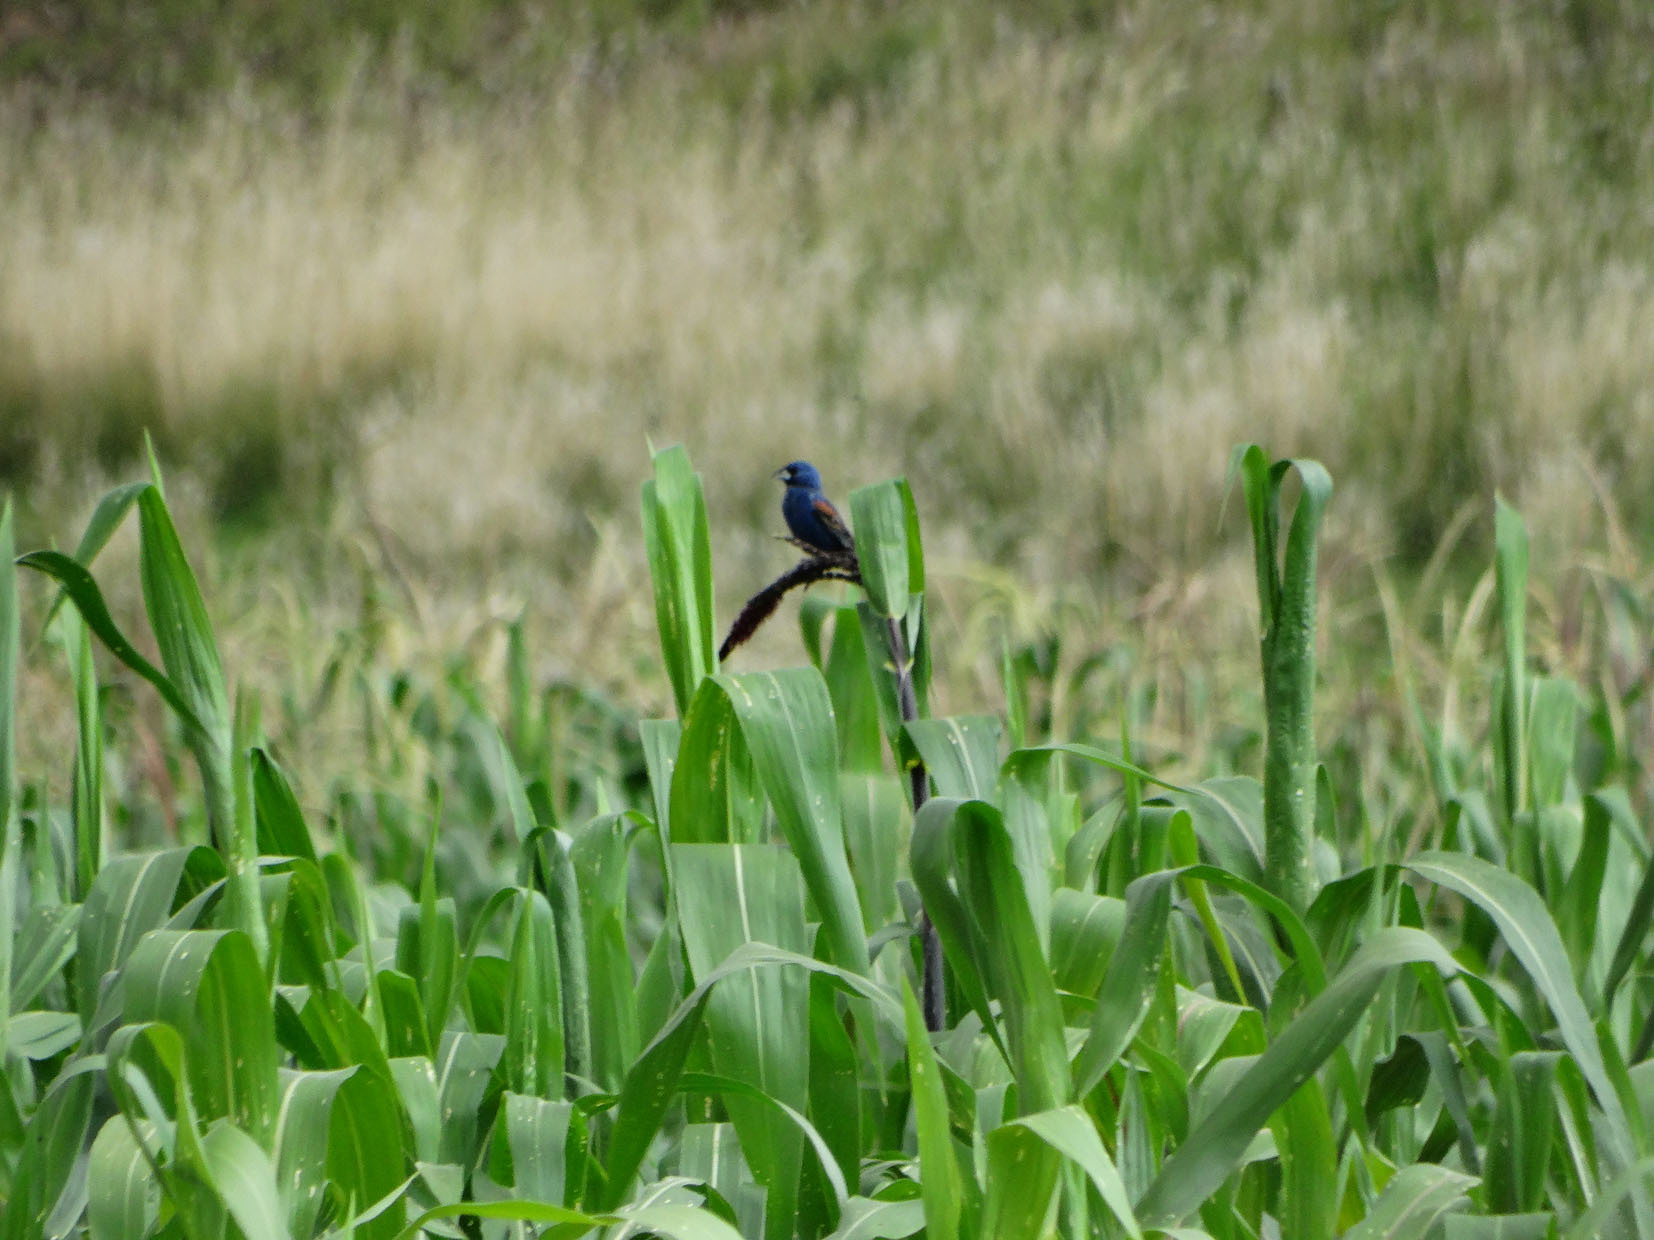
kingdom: Animalia
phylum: Chordata
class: Aves
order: Passeriformes
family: Cardinalidae
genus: Passerina
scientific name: Passerina caerulea
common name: Blue grosbeak
